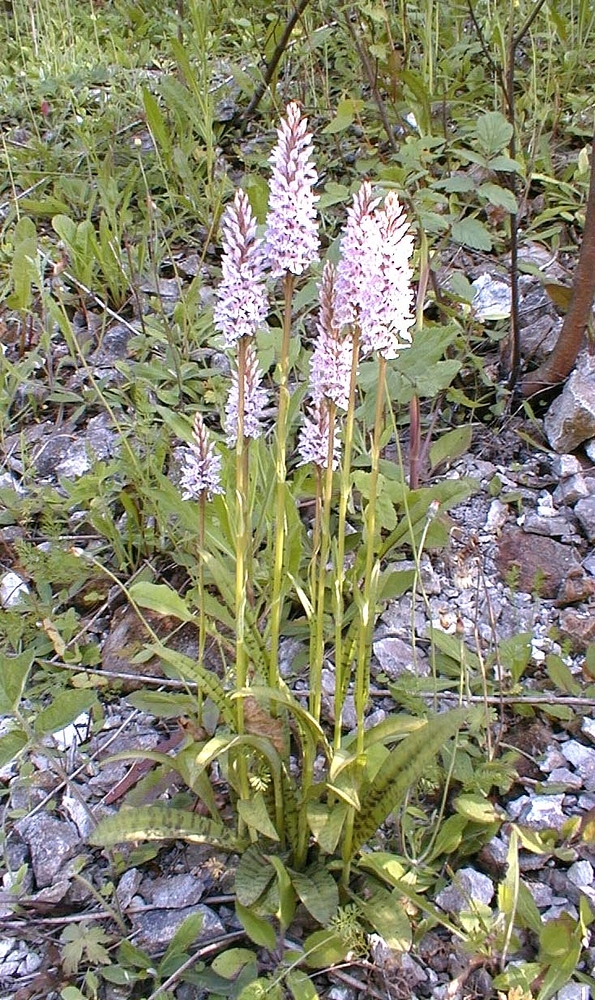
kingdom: Plantae
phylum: Tracheophyta
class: Liliopsida
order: Asparagales
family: Orchidaceae
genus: Dactylorhiza
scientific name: Dactylorhiza maculata
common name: Heath spotted-orchid
